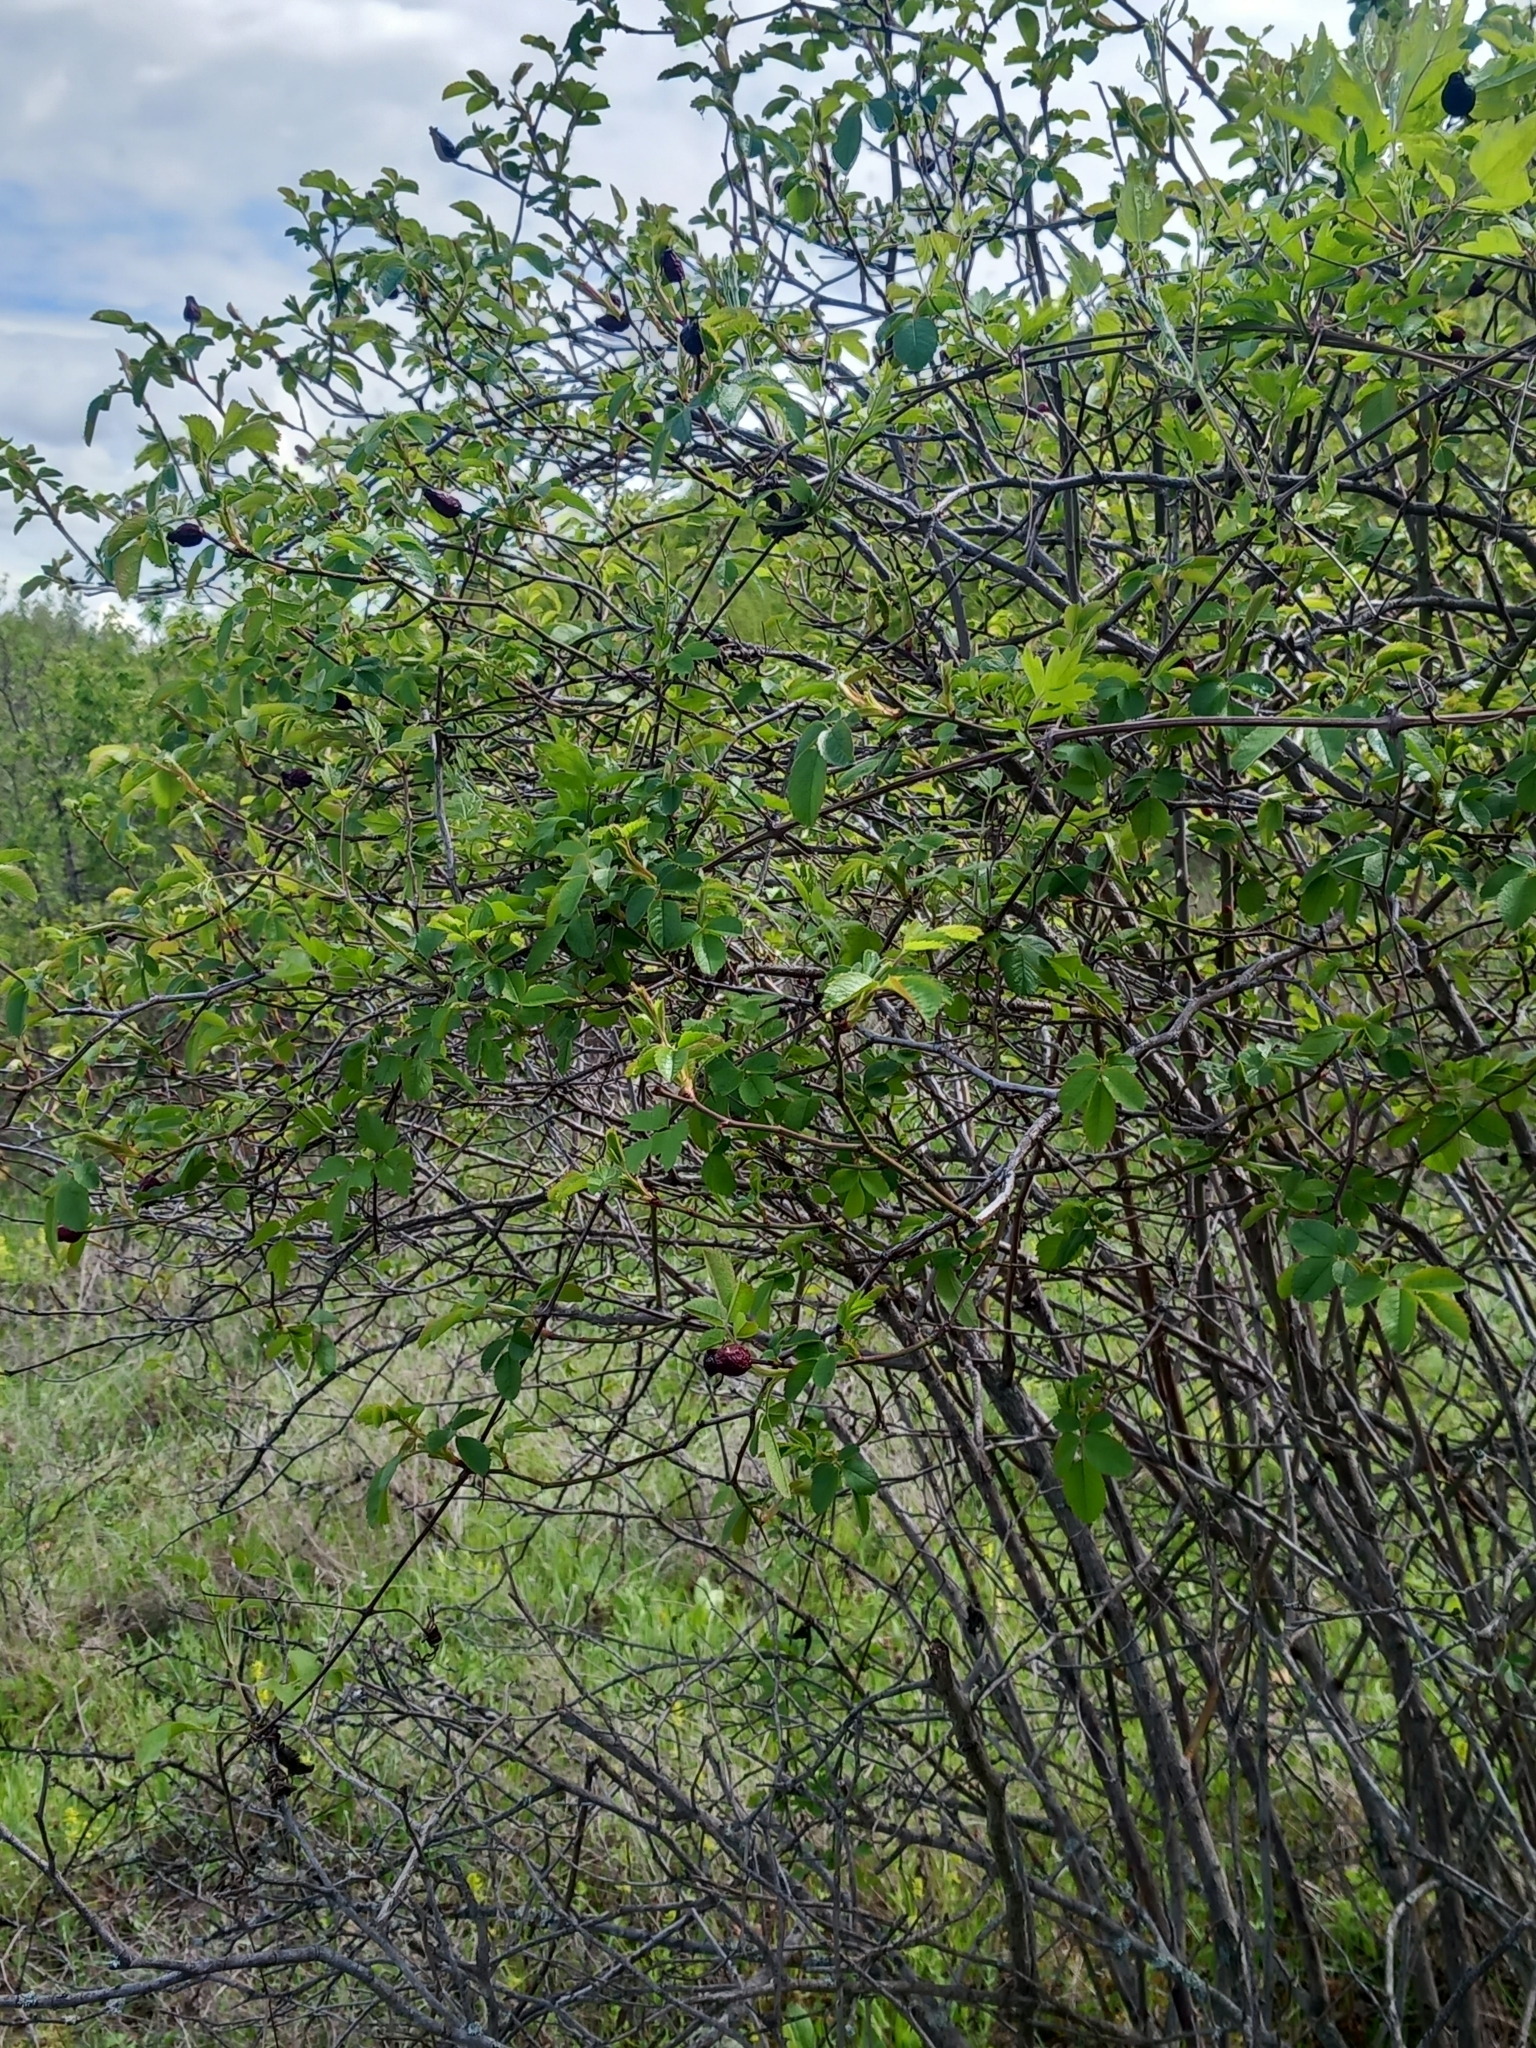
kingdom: Plantae
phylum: Tracheophyta
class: Magnoliopsida
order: Rosales
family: Rosaceae
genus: Rosa
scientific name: Rosa canina
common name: Dog rose
